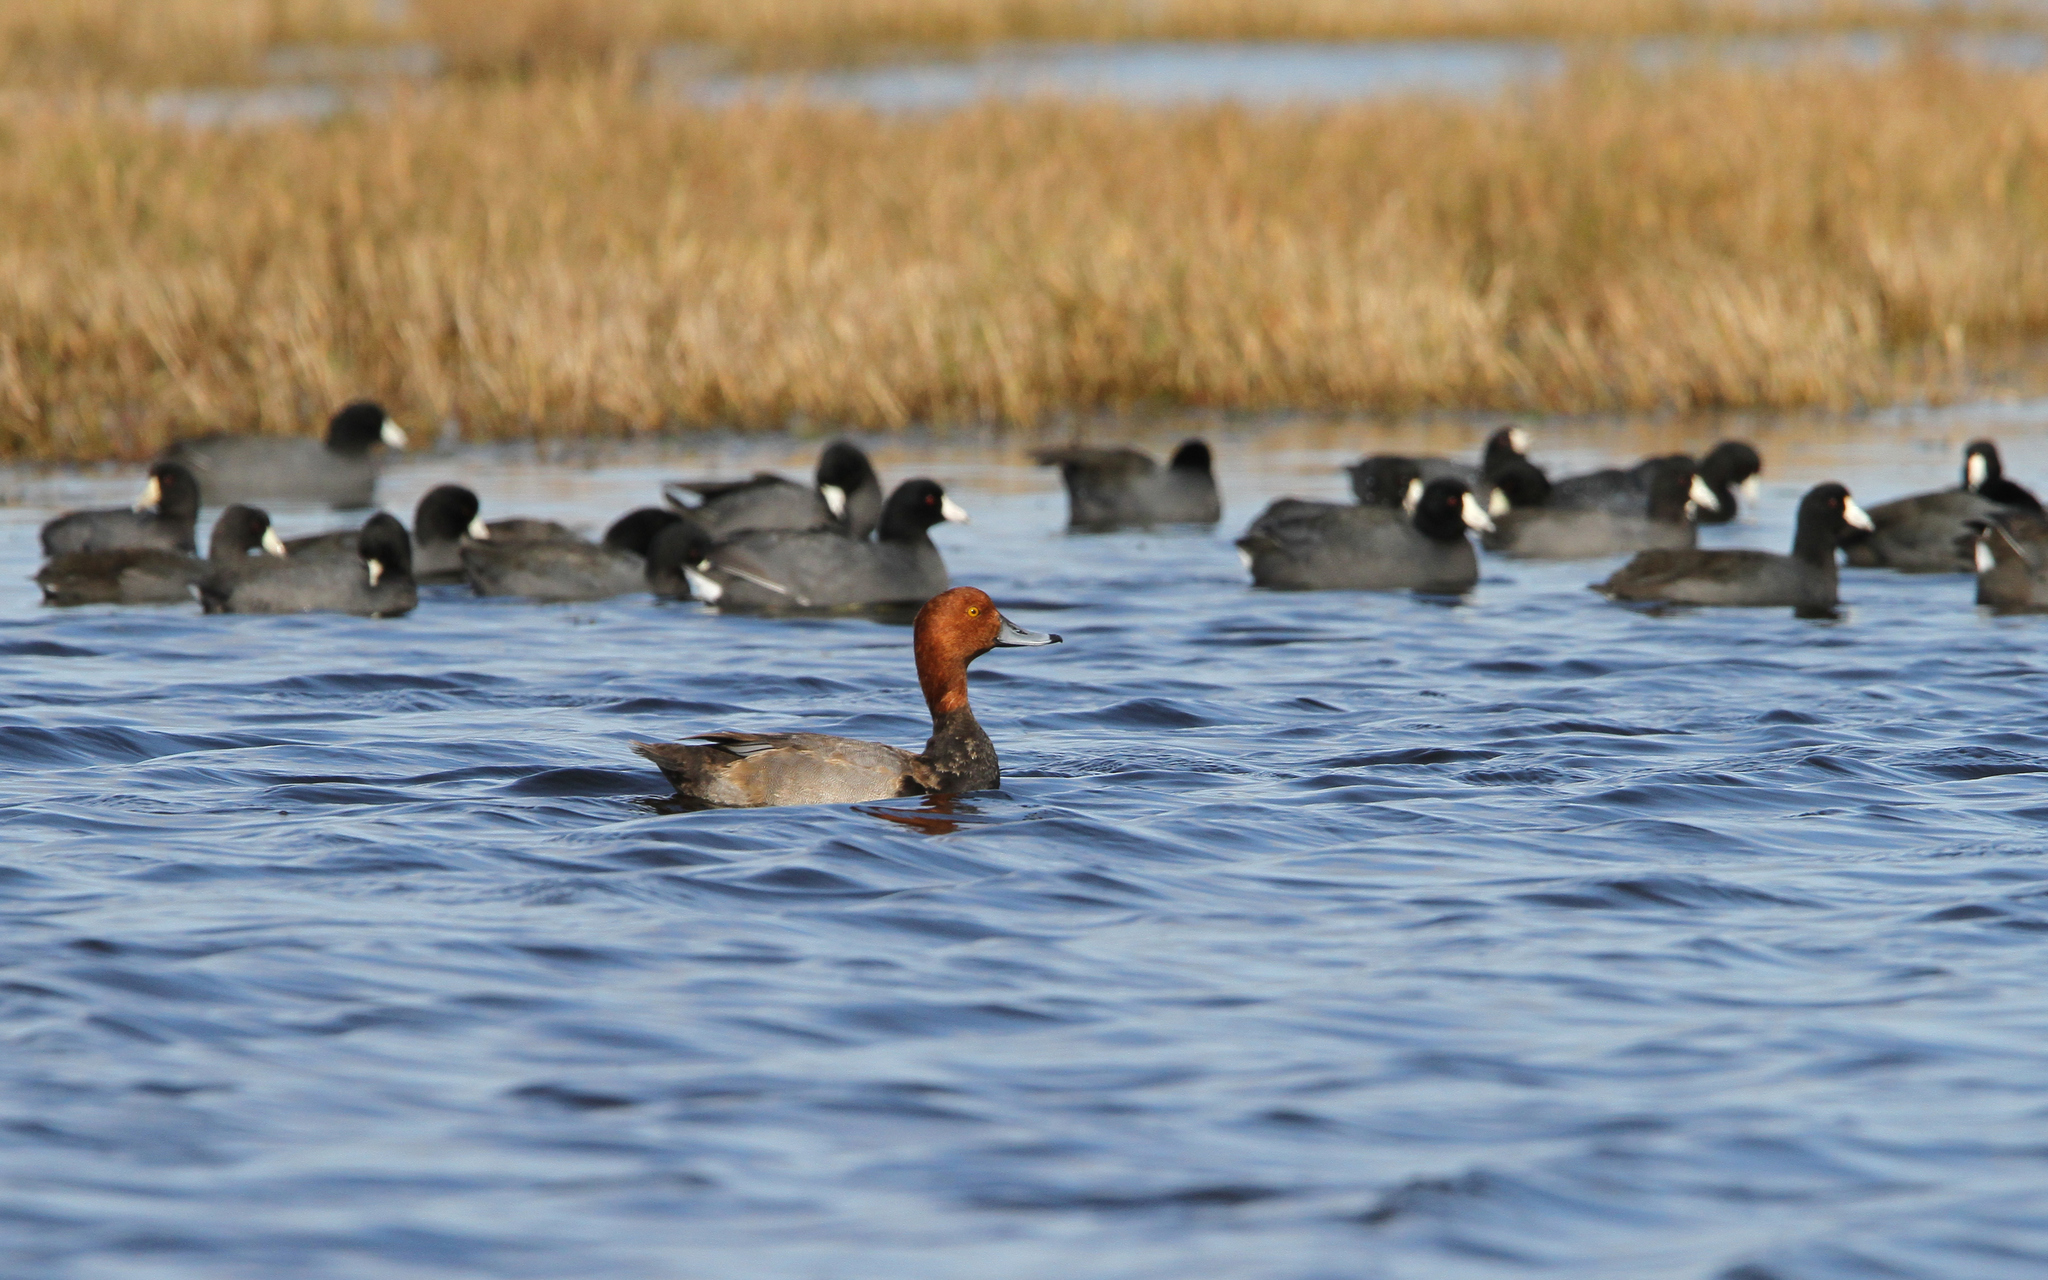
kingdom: Animalia
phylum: Chordata
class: Aves
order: Anseriformes
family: Anatidae
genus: Aythya
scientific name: Aythya americana
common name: Redhead
